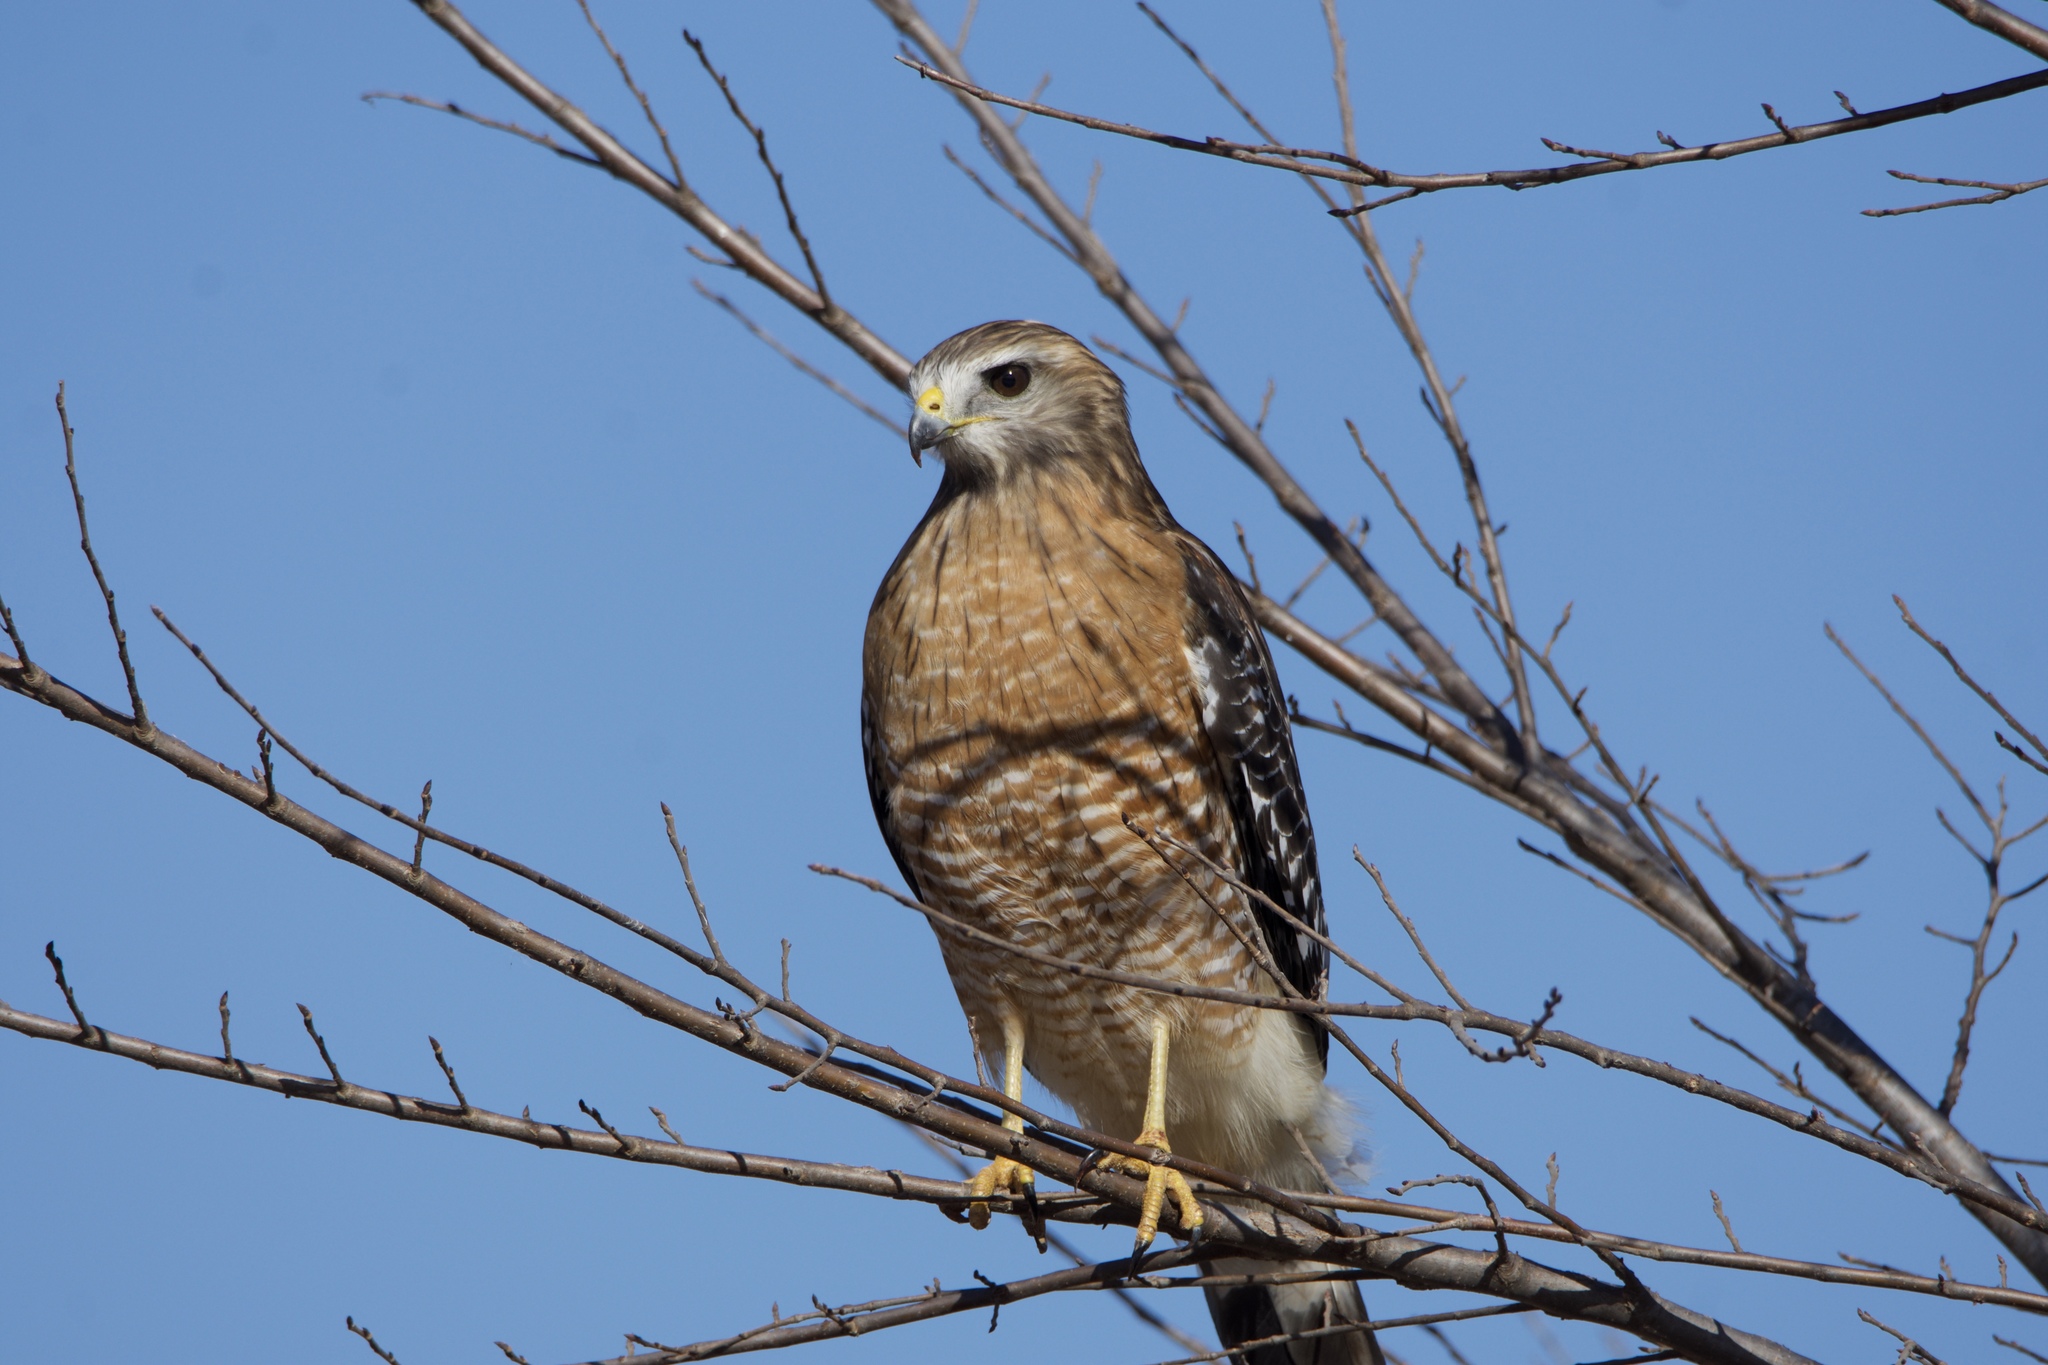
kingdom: Animalia
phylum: Chordata
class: Aves
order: Accipitriformes
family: Accipitridae
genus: Buteo
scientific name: Buteo lineatus
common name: Red-shouldered hawk
